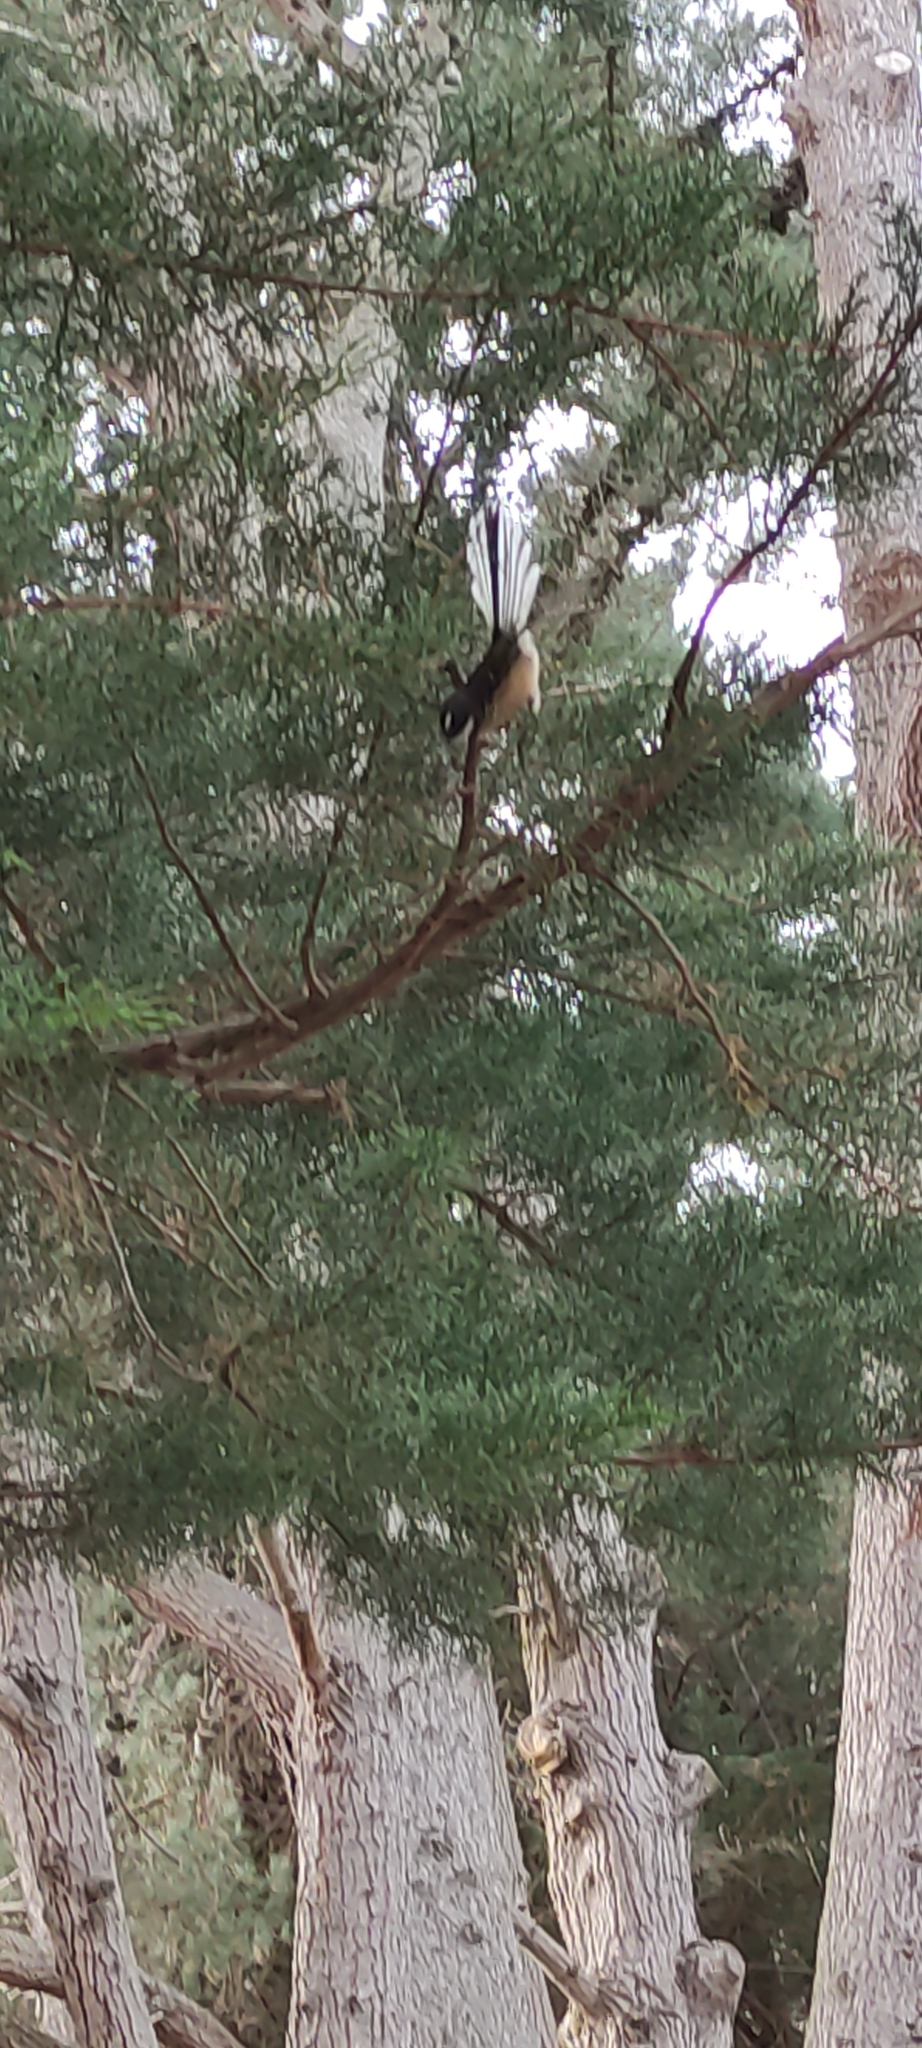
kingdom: Animalia
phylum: Chordata
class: Aves
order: Passeriformes
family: Rhipiduridae
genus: Rhipidura
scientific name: Rhipidura fuliginosa
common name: New zealand fantail
